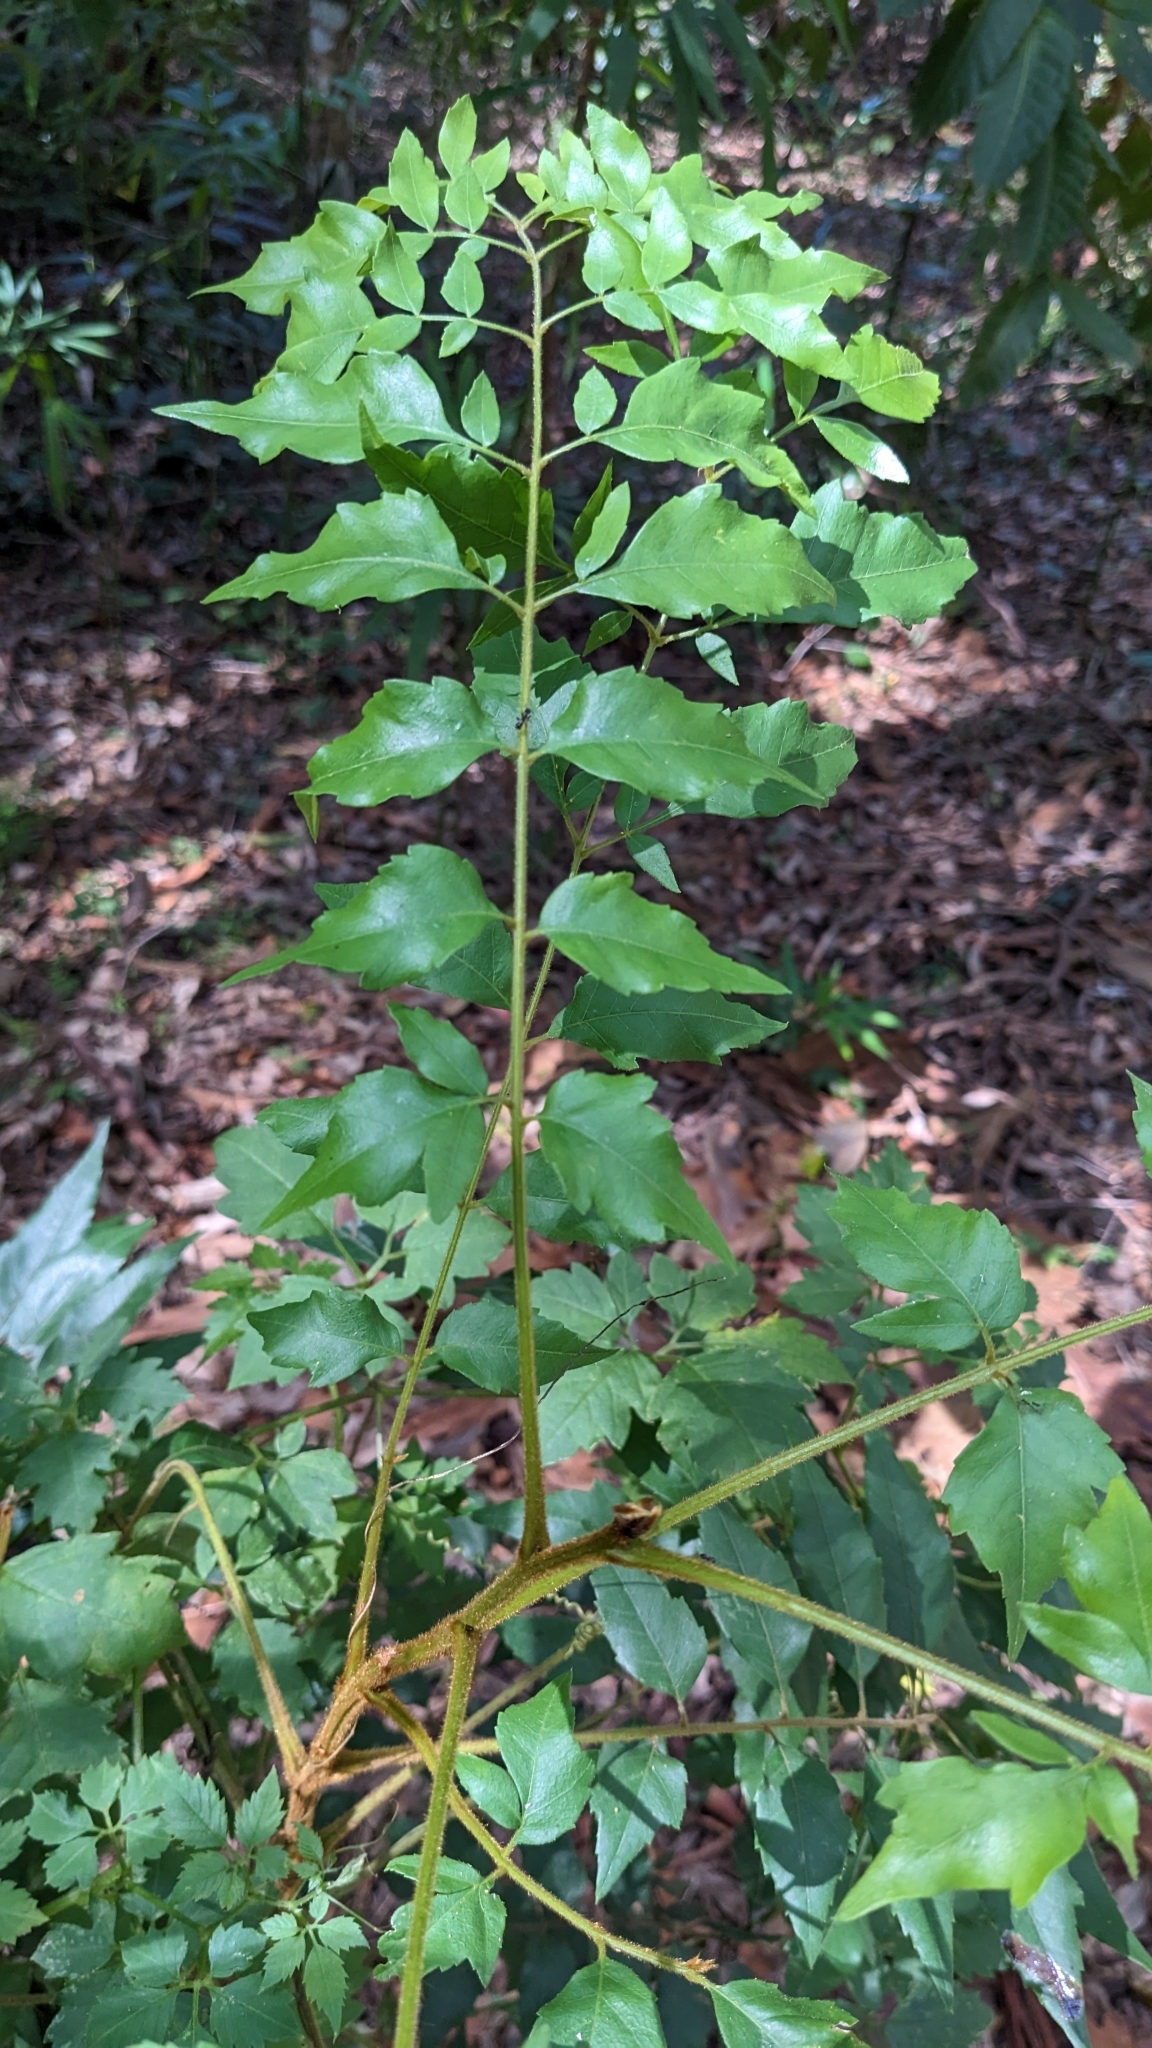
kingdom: Plantae
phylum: Tracheophyta
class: Magnoliopsida
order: Sapindales
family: Sapindaceae
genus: Jagera
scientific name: Jagera pseudorhus
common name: Fern-leaf-tamarind
